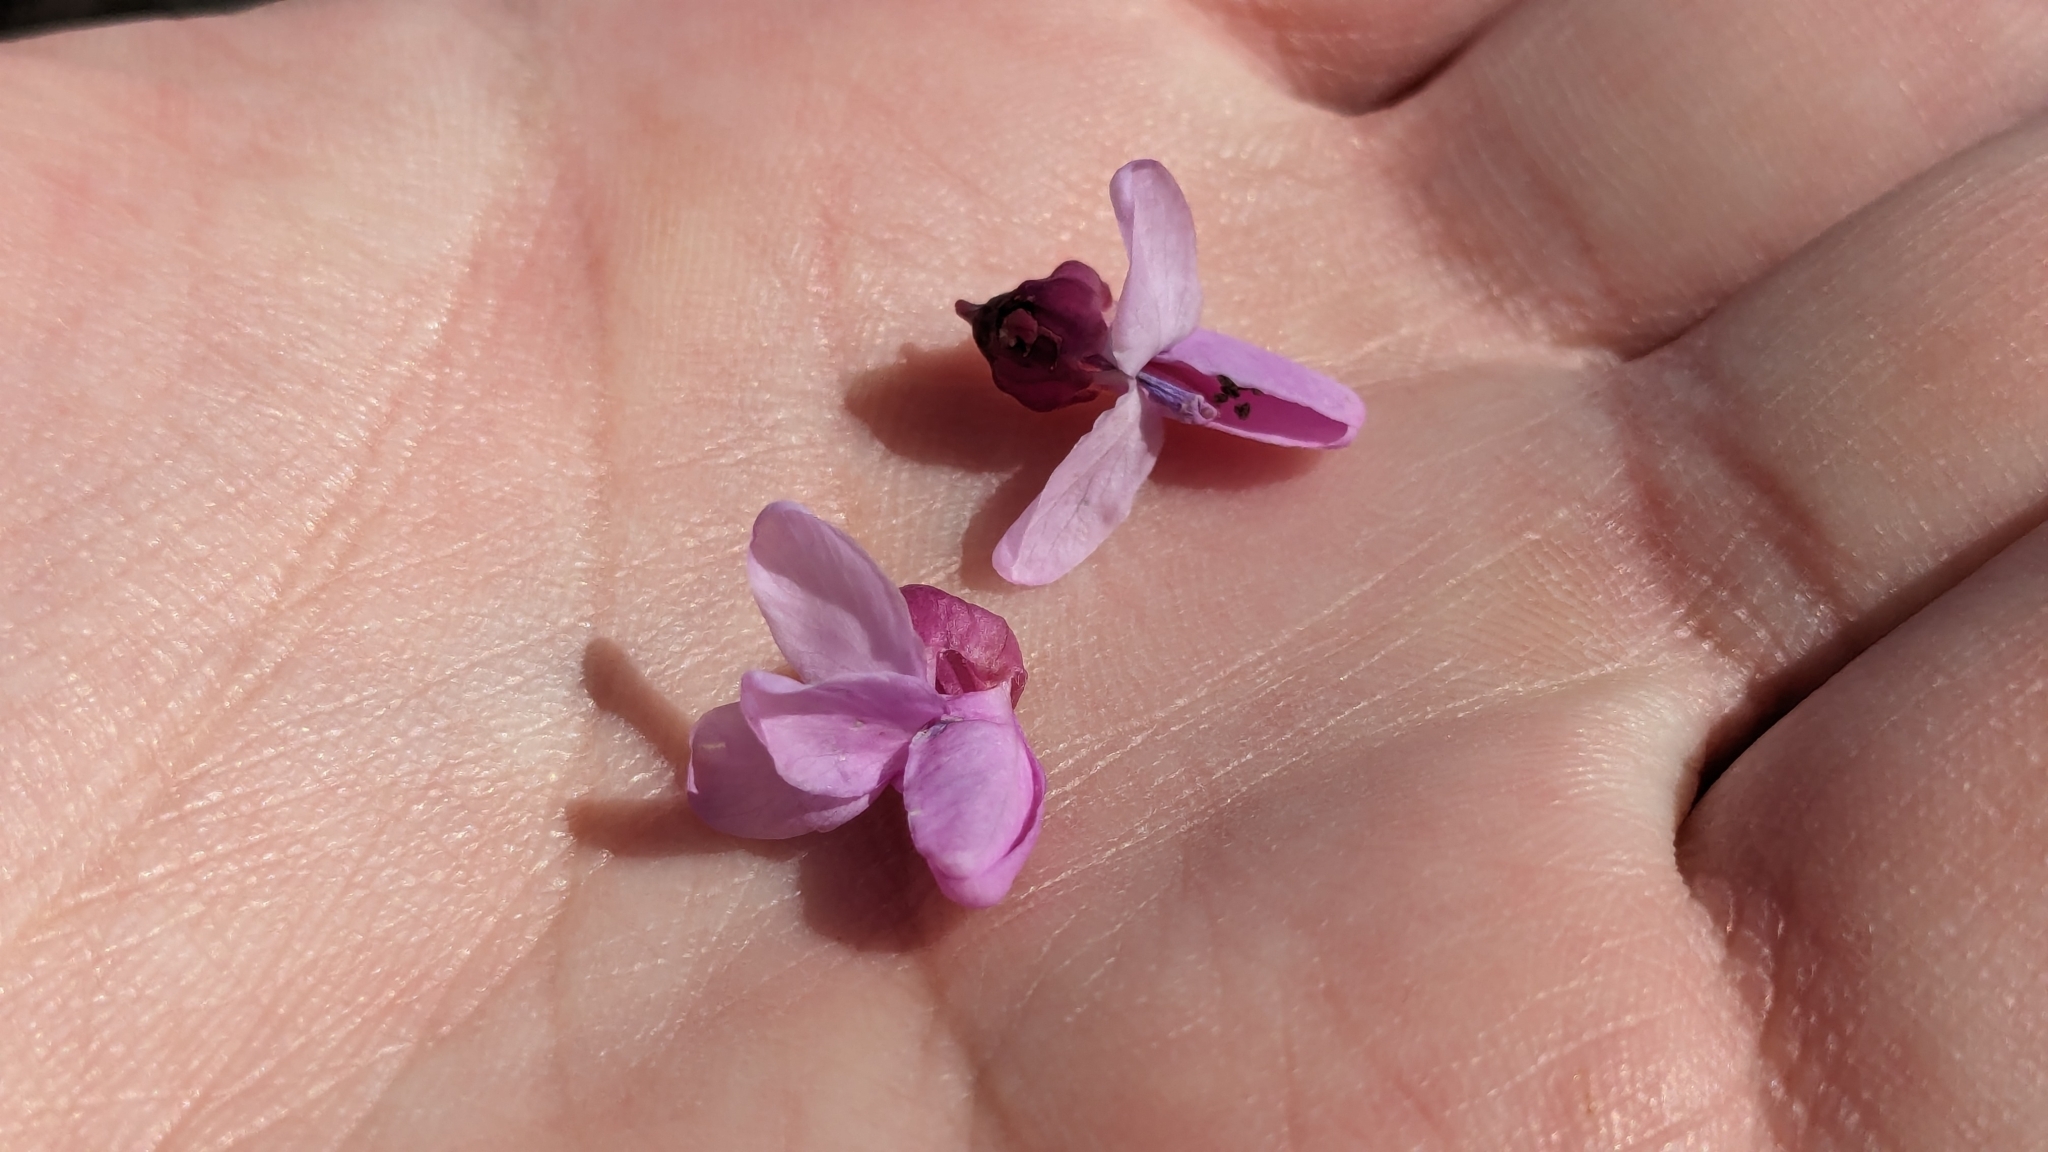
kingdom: Plantae
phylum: Tracheophyta
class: Magnoliopsida
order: Fabales
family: Fabaceae
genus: Cercis
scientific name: Cercis canadensis
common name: Eastern redbud
